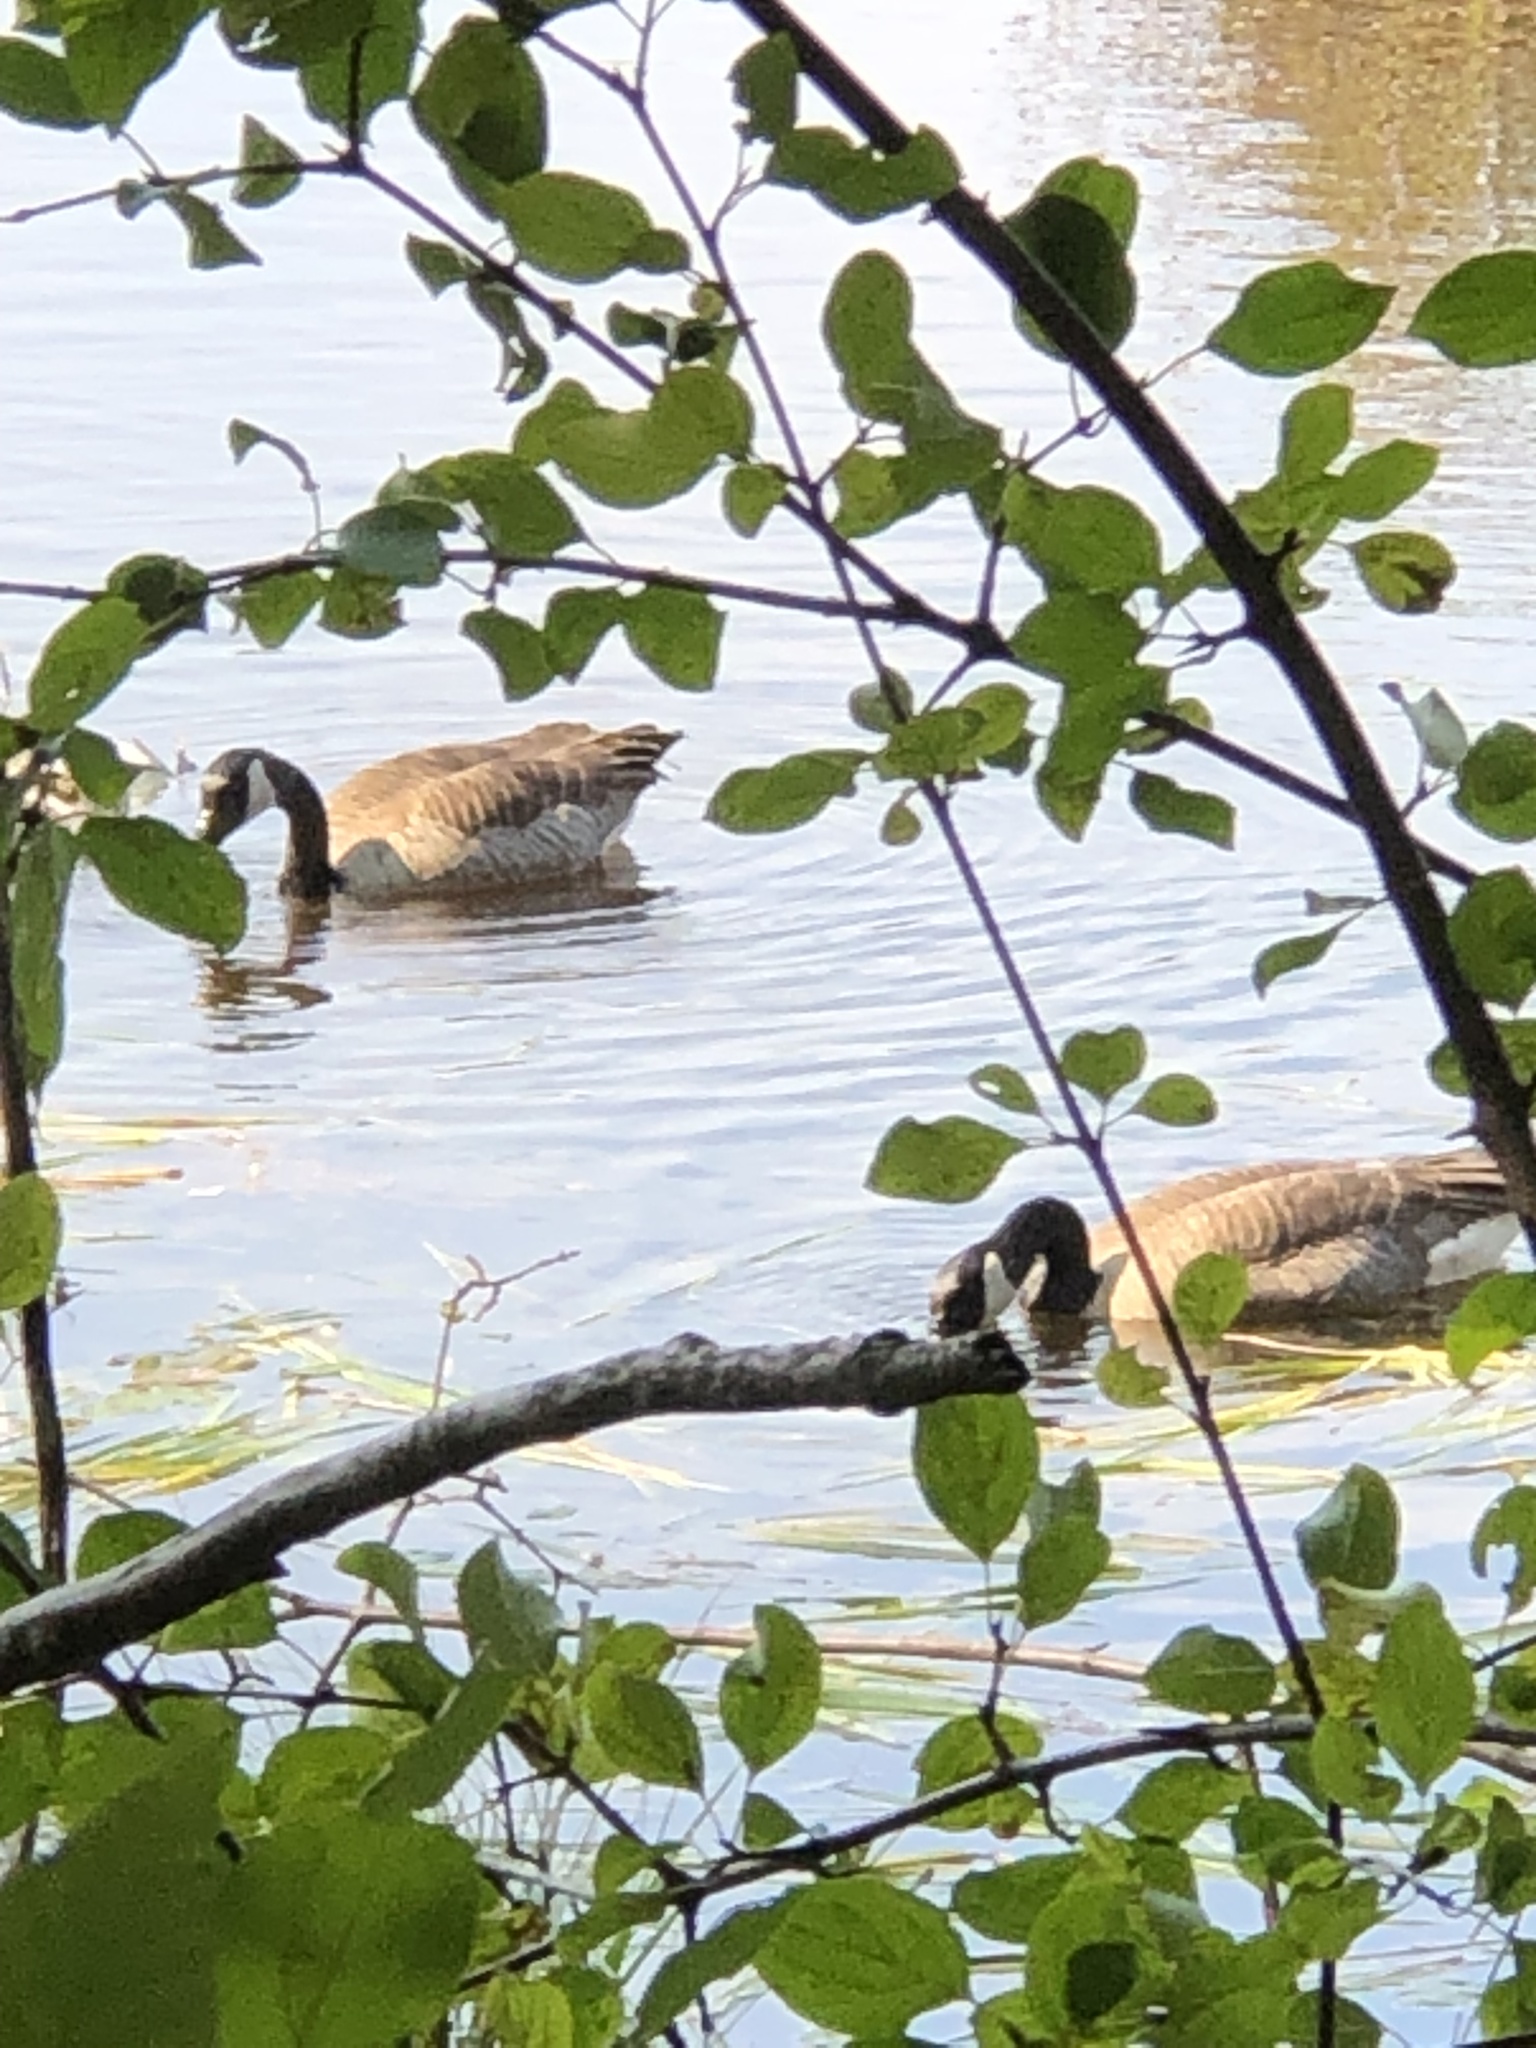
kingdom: Animalia
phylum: Chordata
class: Aves
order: Anseriformes
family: Anatidae
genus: Branta
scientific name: Branta canadensis
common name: Canada goose
